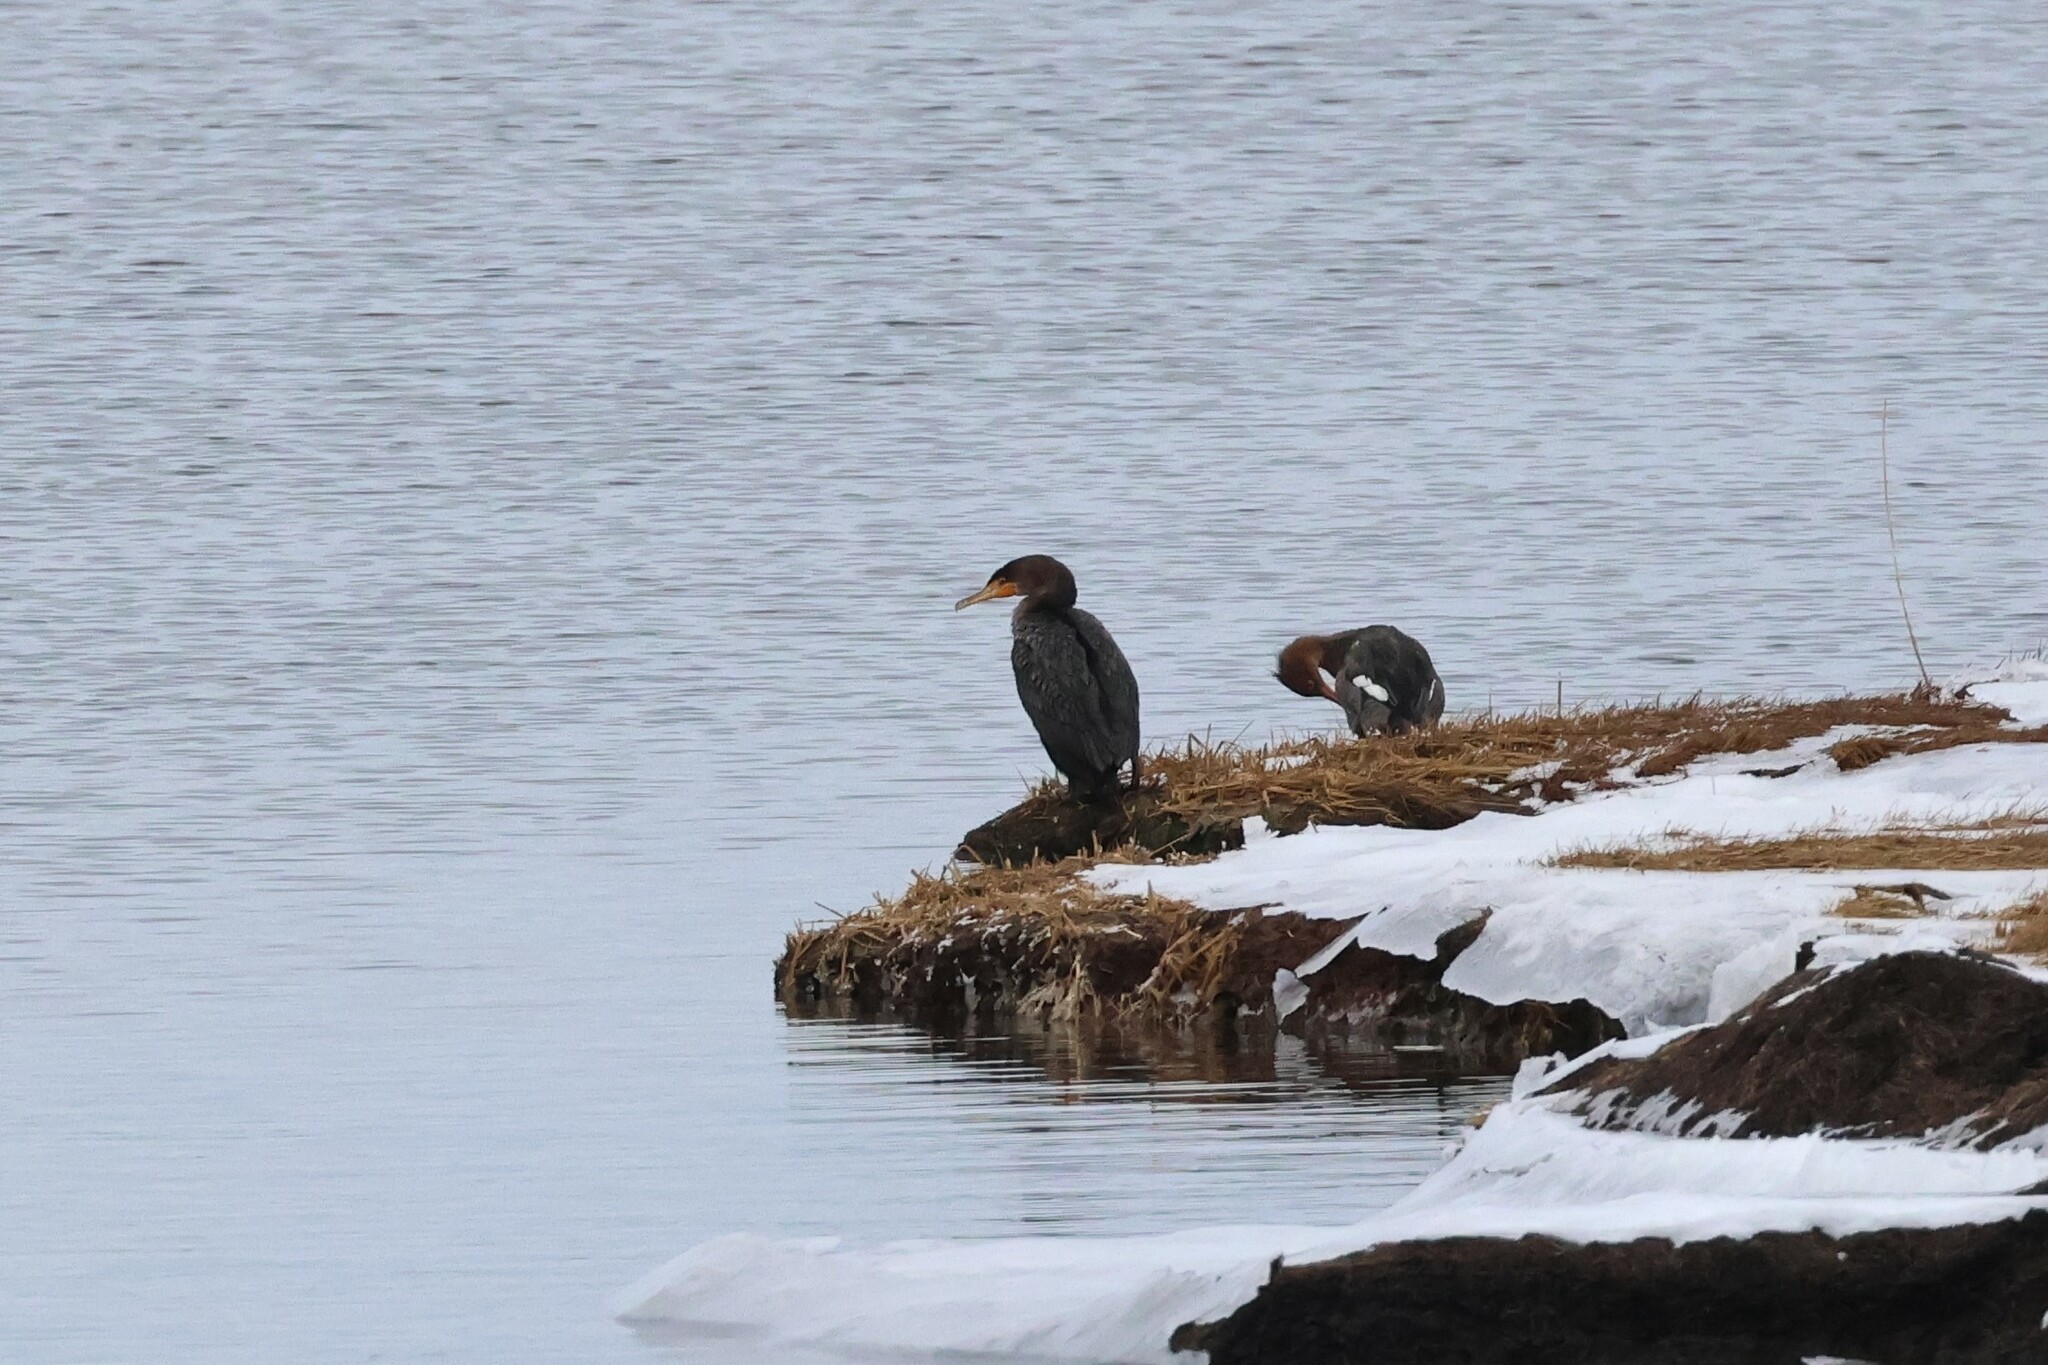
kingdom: Animalia
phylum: Chordata
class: Aves
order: Suliformes
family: Phalacrocoracidae
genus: Phalacrocorax
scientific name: Phalacrocorax auritus
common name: Double-crested cormorant
